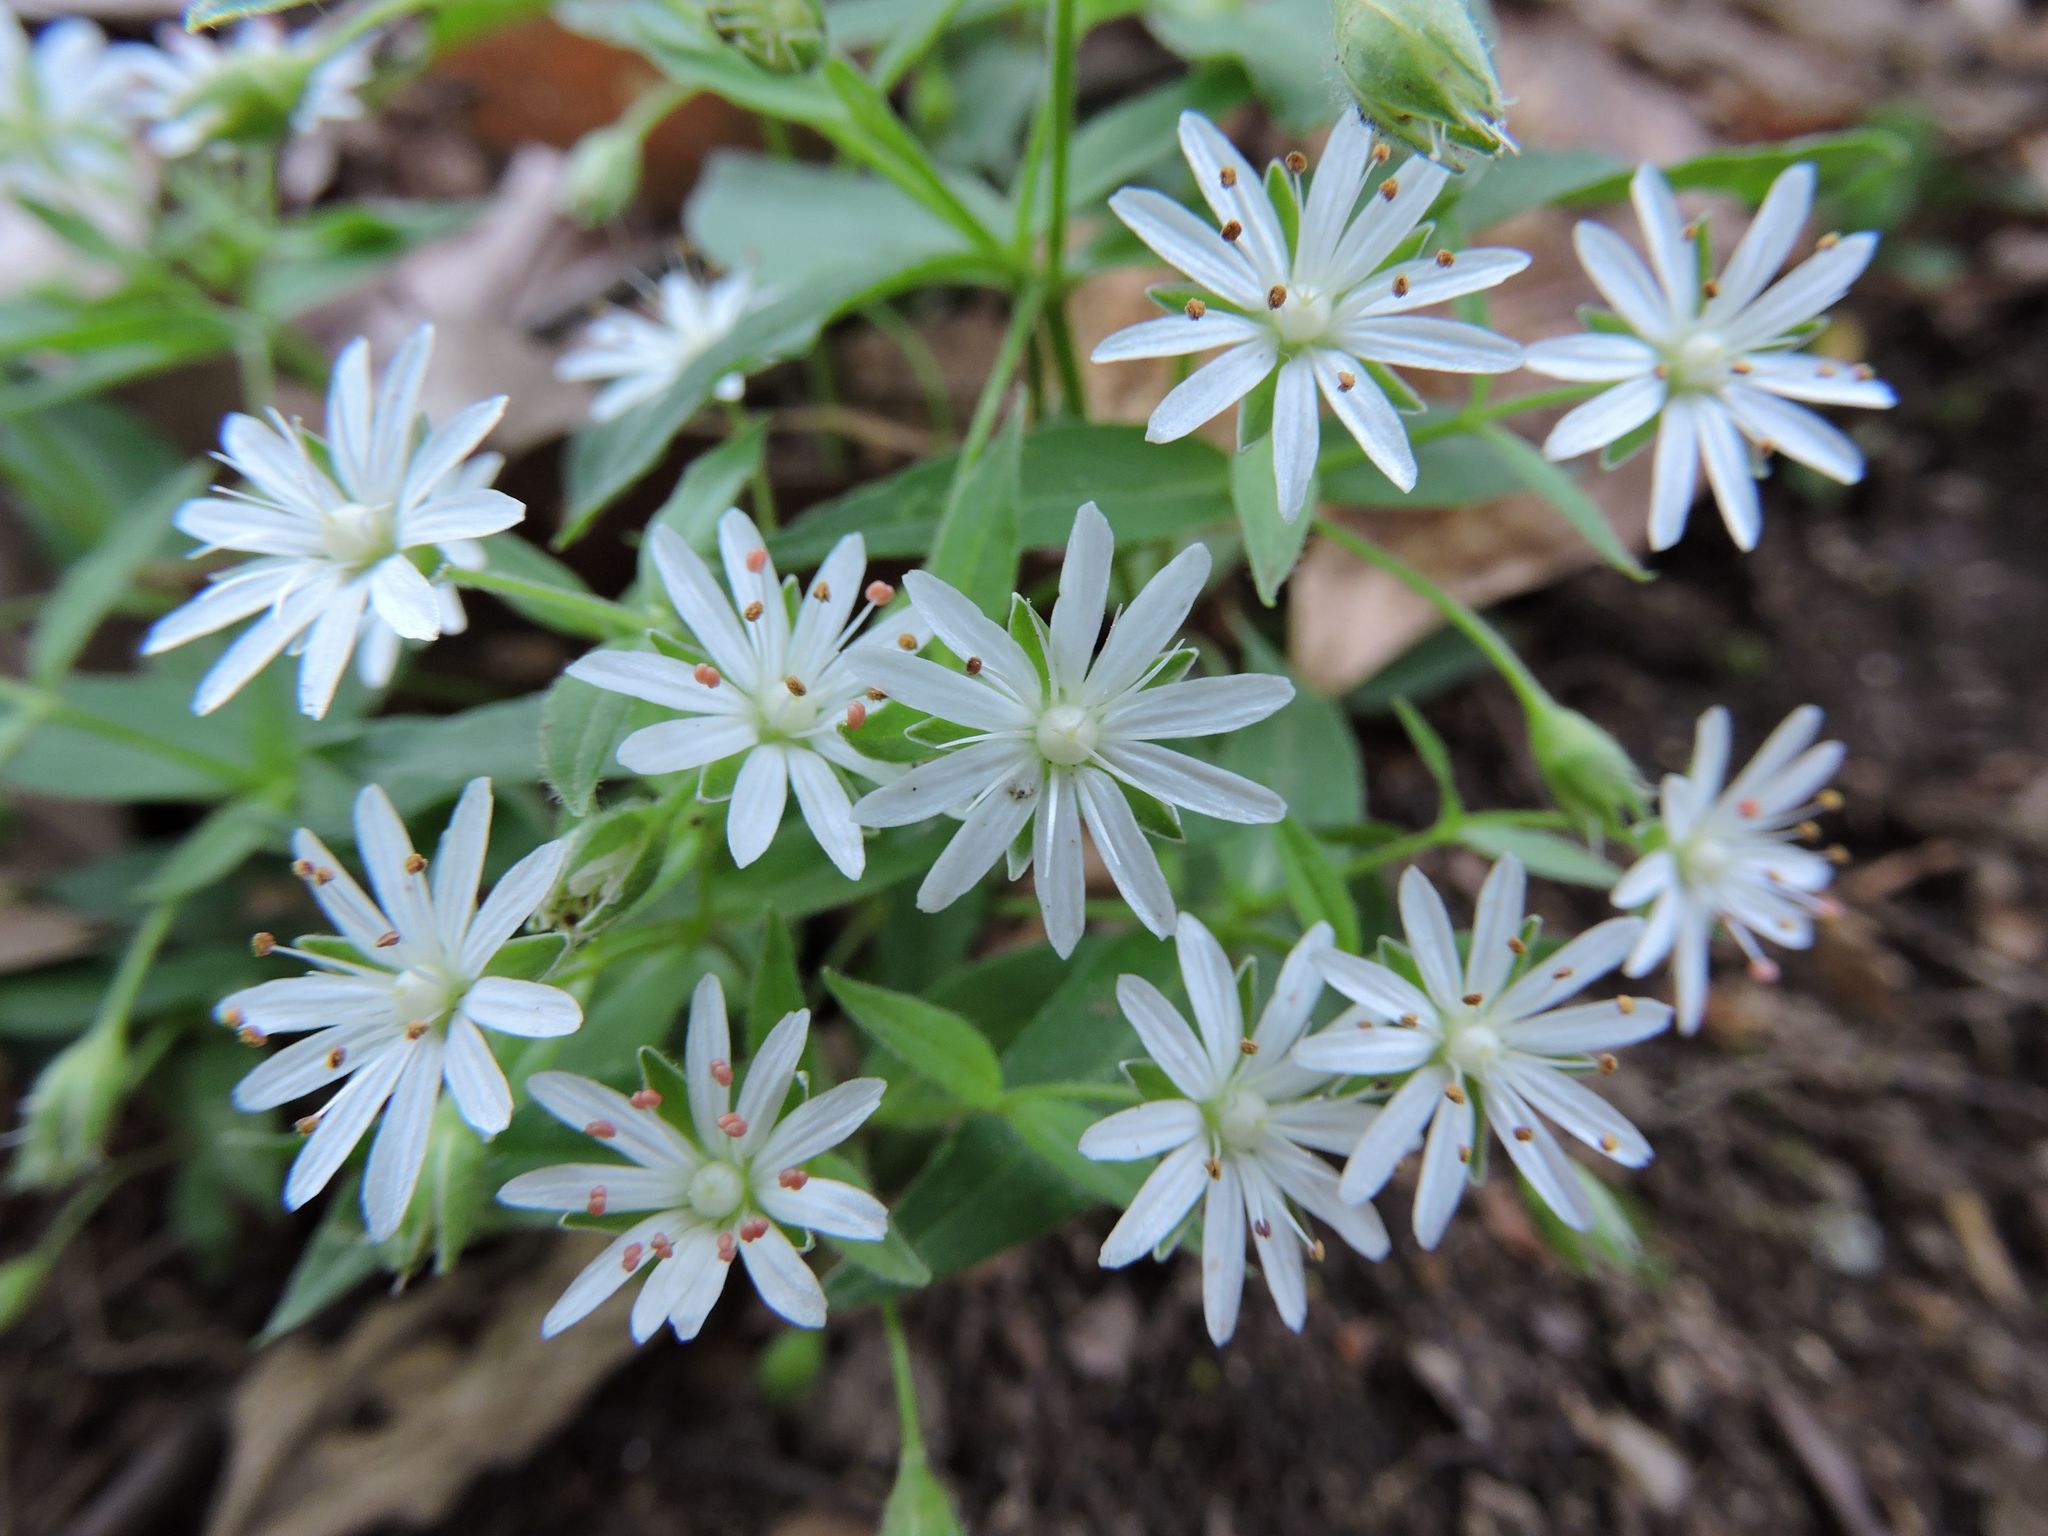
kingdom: Plantae
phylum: Tracheophyta
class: Magnoliopsida
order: Caryophyllales
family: Caryophyllaceae
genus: Stellaria
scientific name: Stellaria pubera
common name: Star chickweed
